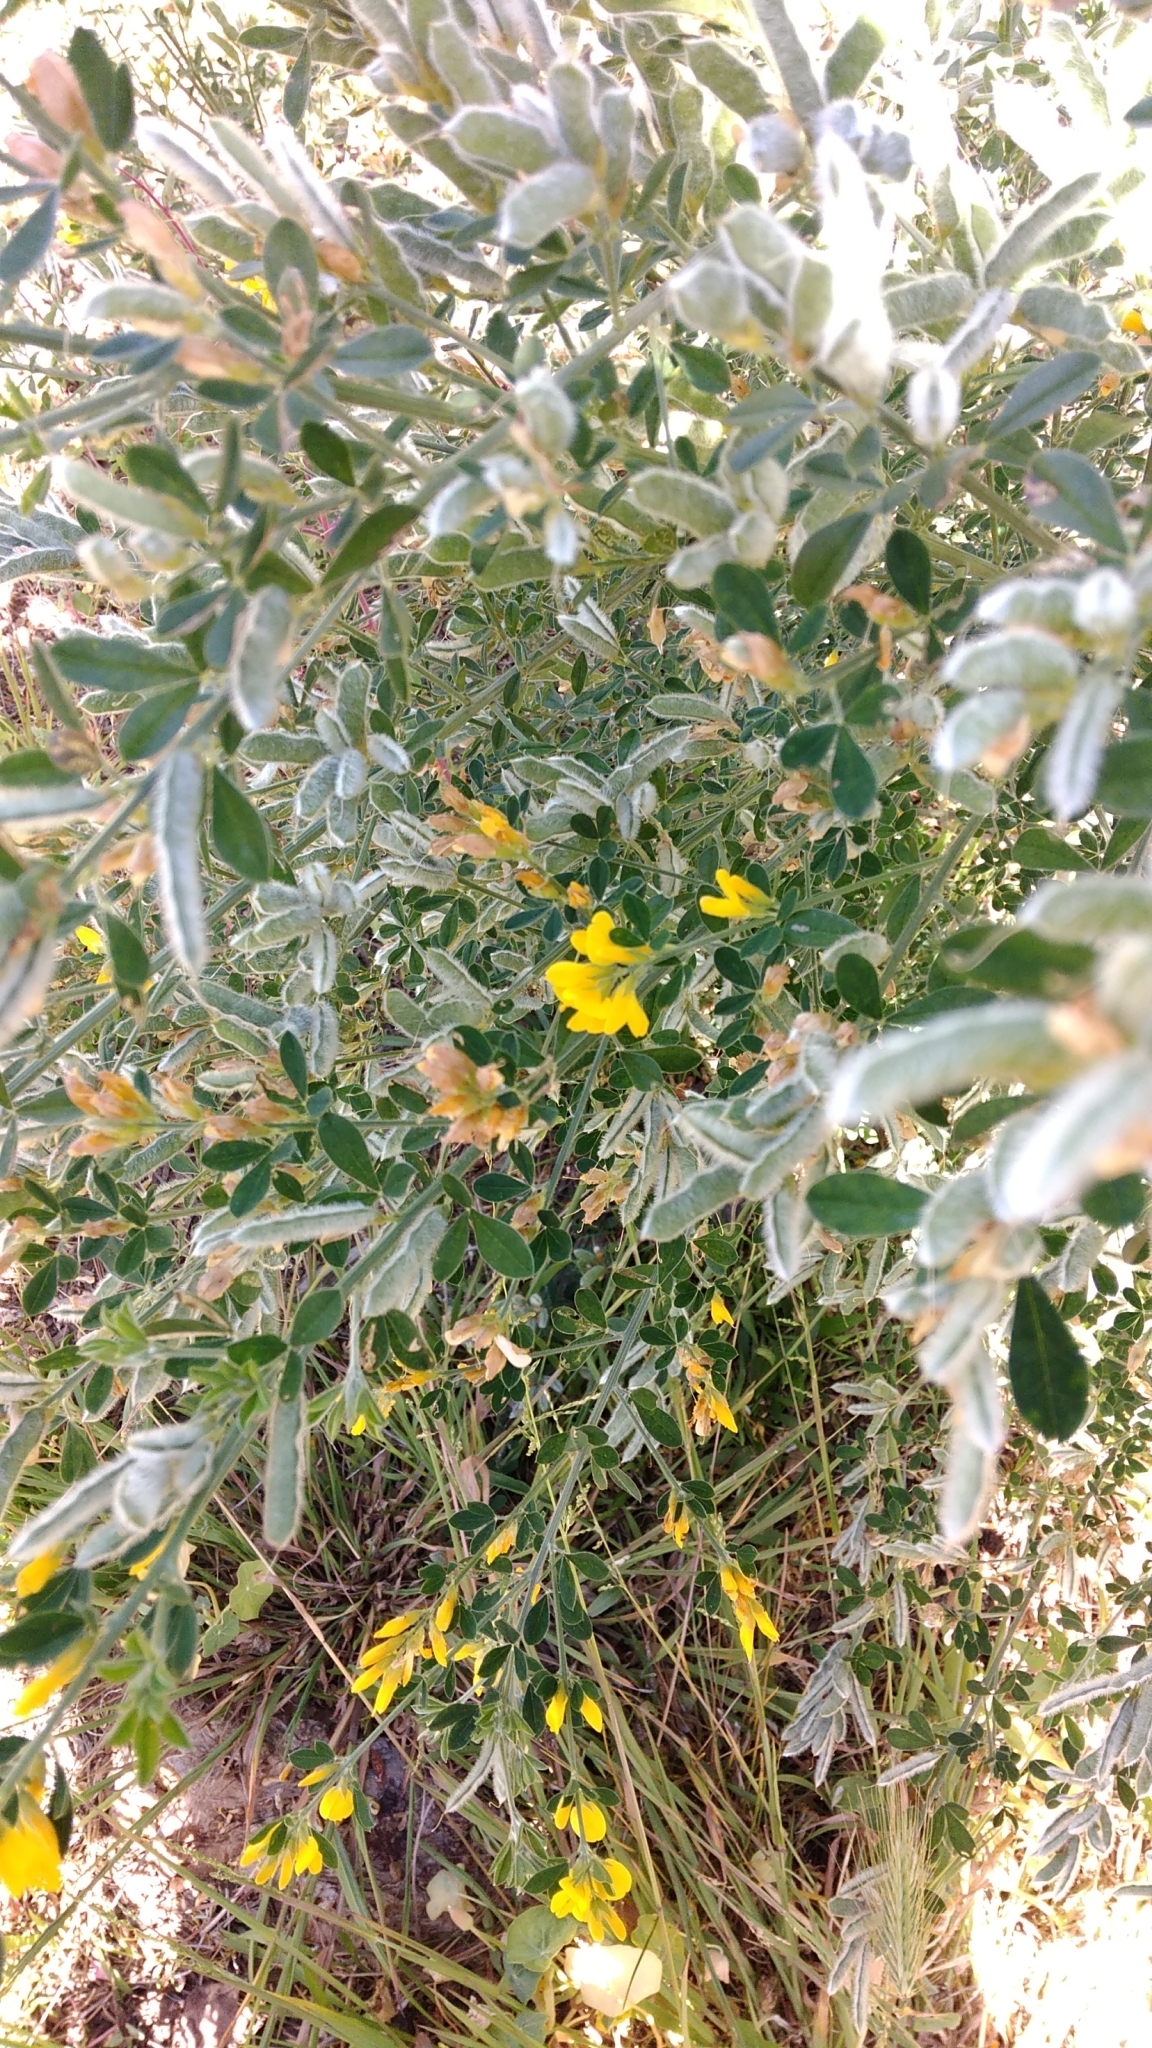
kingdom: Plantae
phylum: Tracheophyta
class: Magnoliopsida
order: Fabales
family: Fabaceae
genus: Genista
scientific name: Genista monspessulana
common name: Montpellier broom
